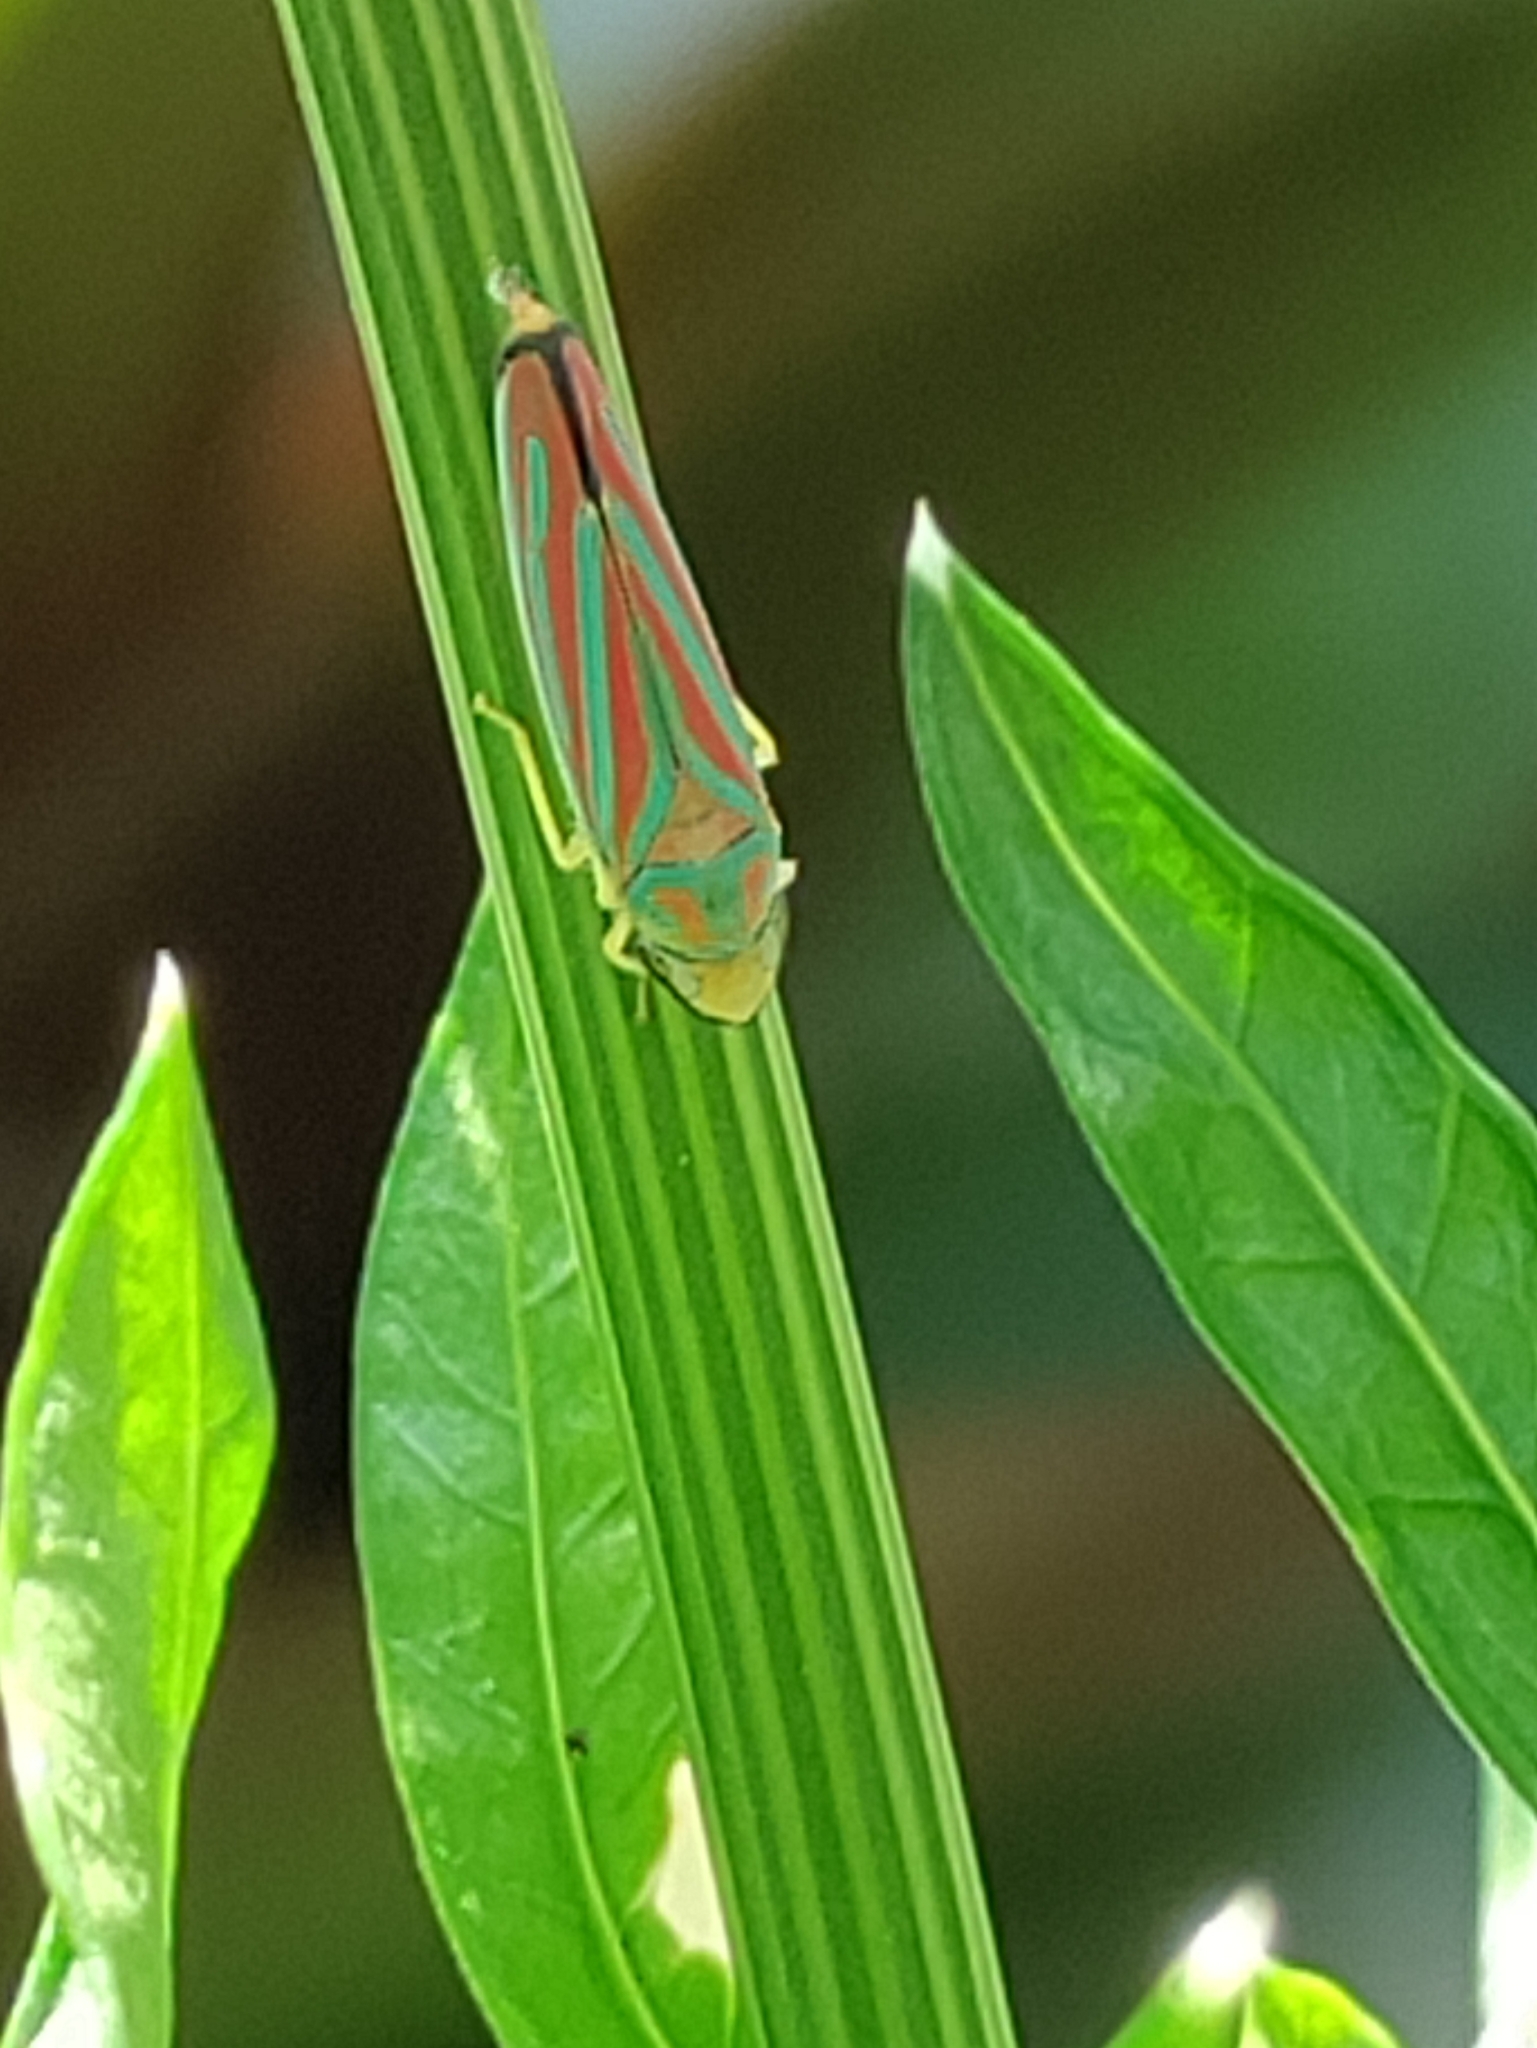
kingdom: Animalia
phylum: Arthropoda
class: Insecta
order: Hemiptera
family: Cicadellidae
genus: Graphocephala
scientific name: Graphocephala coccinea
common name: Candy-striped leafhopper
